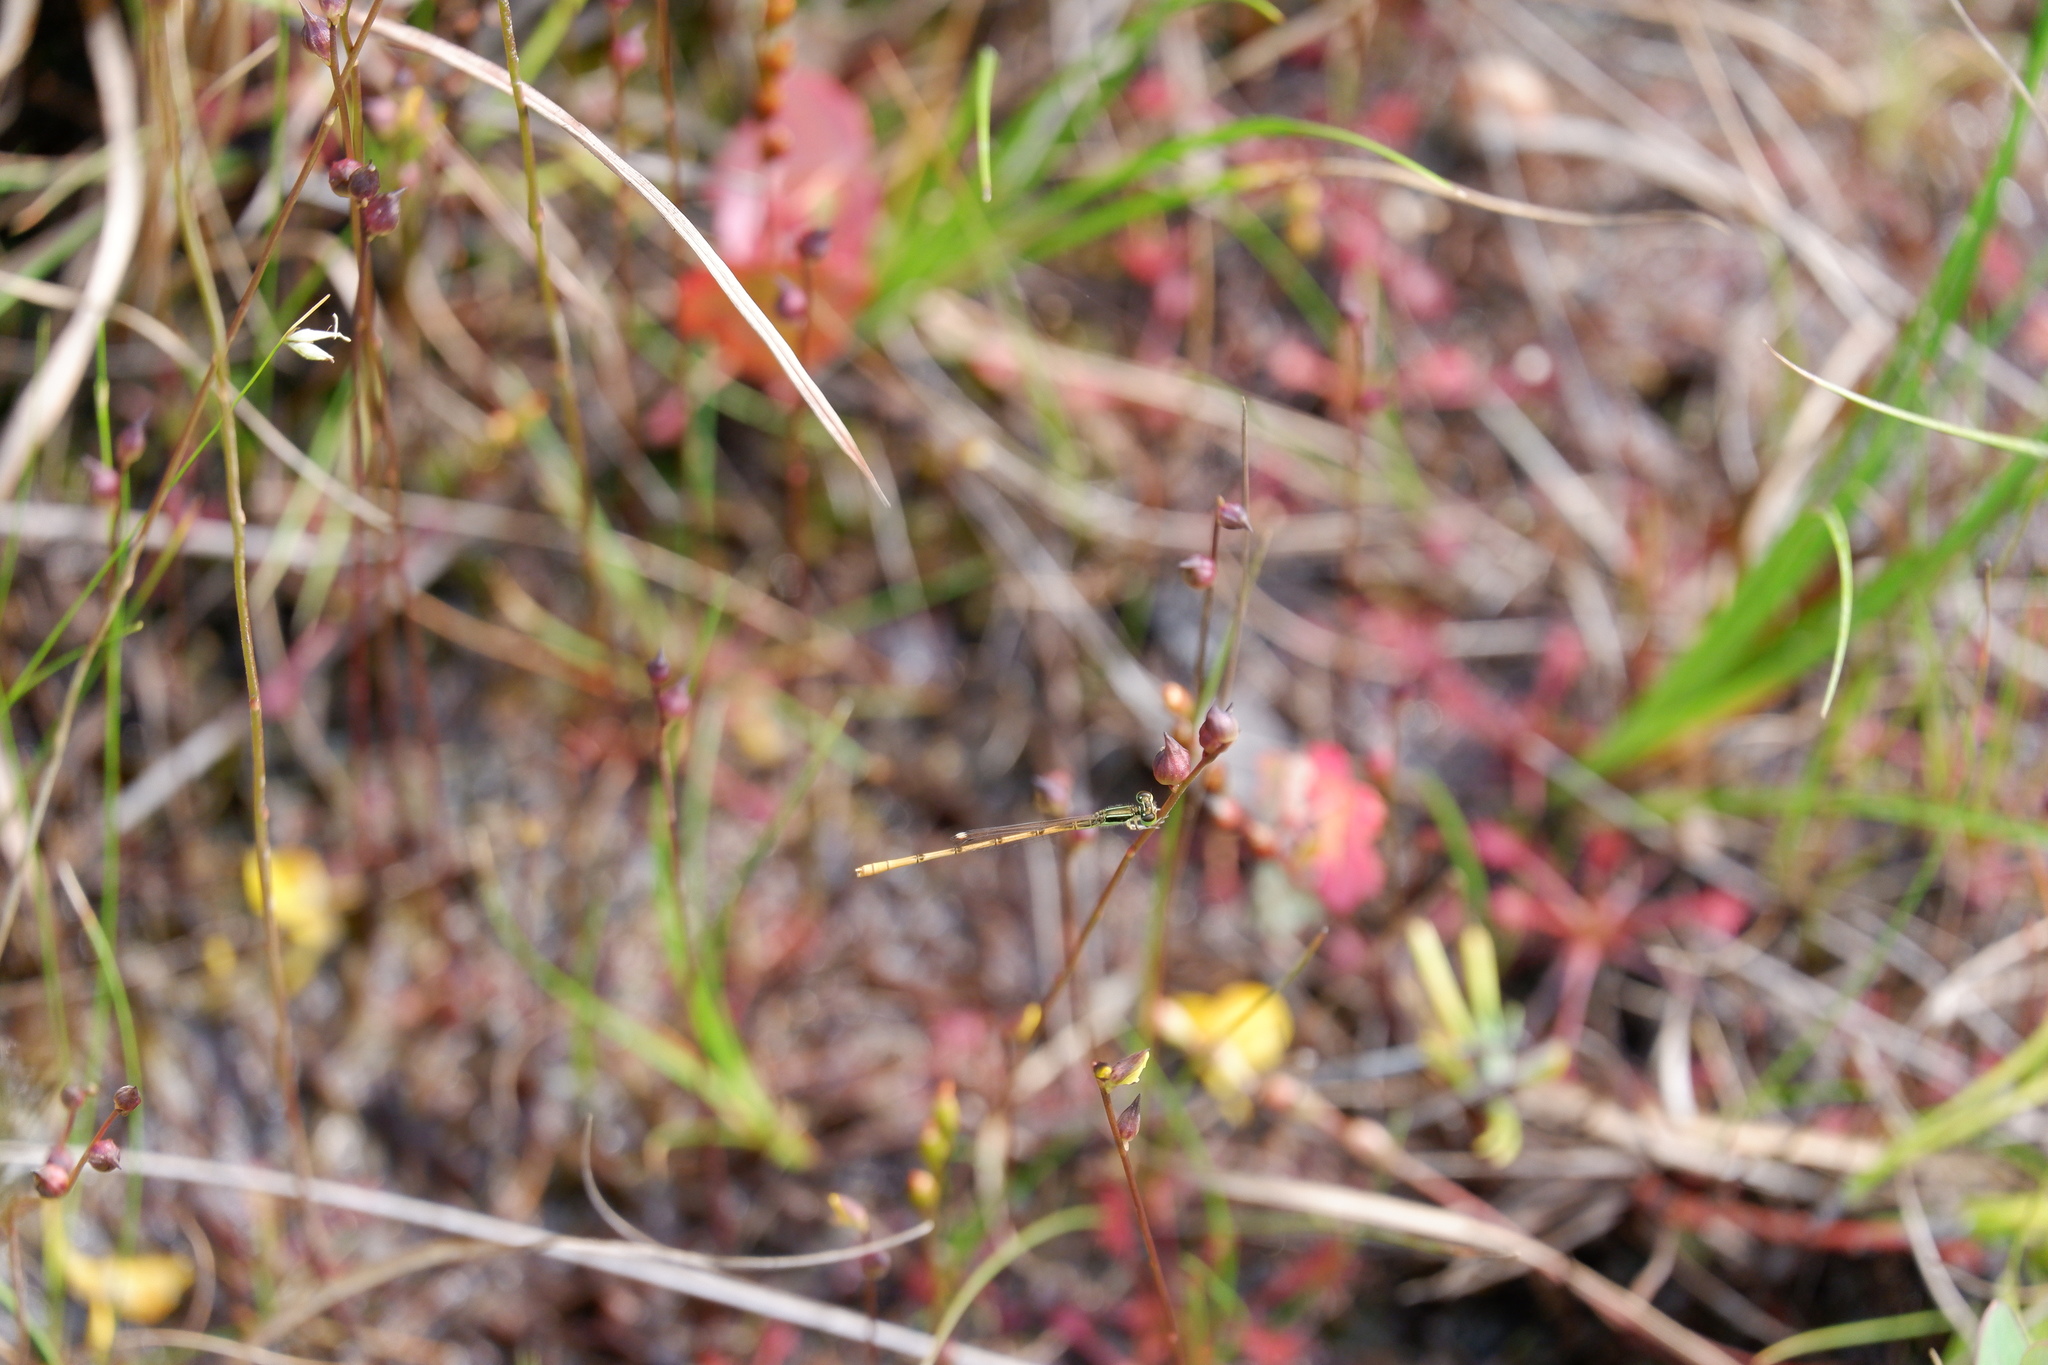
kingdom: Animalia
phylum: Arthropoda
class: Insecta
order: Odonata
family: Coenagrionidae
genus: Ischnura
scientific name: Ischnura hastata
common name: Citrine forktail
